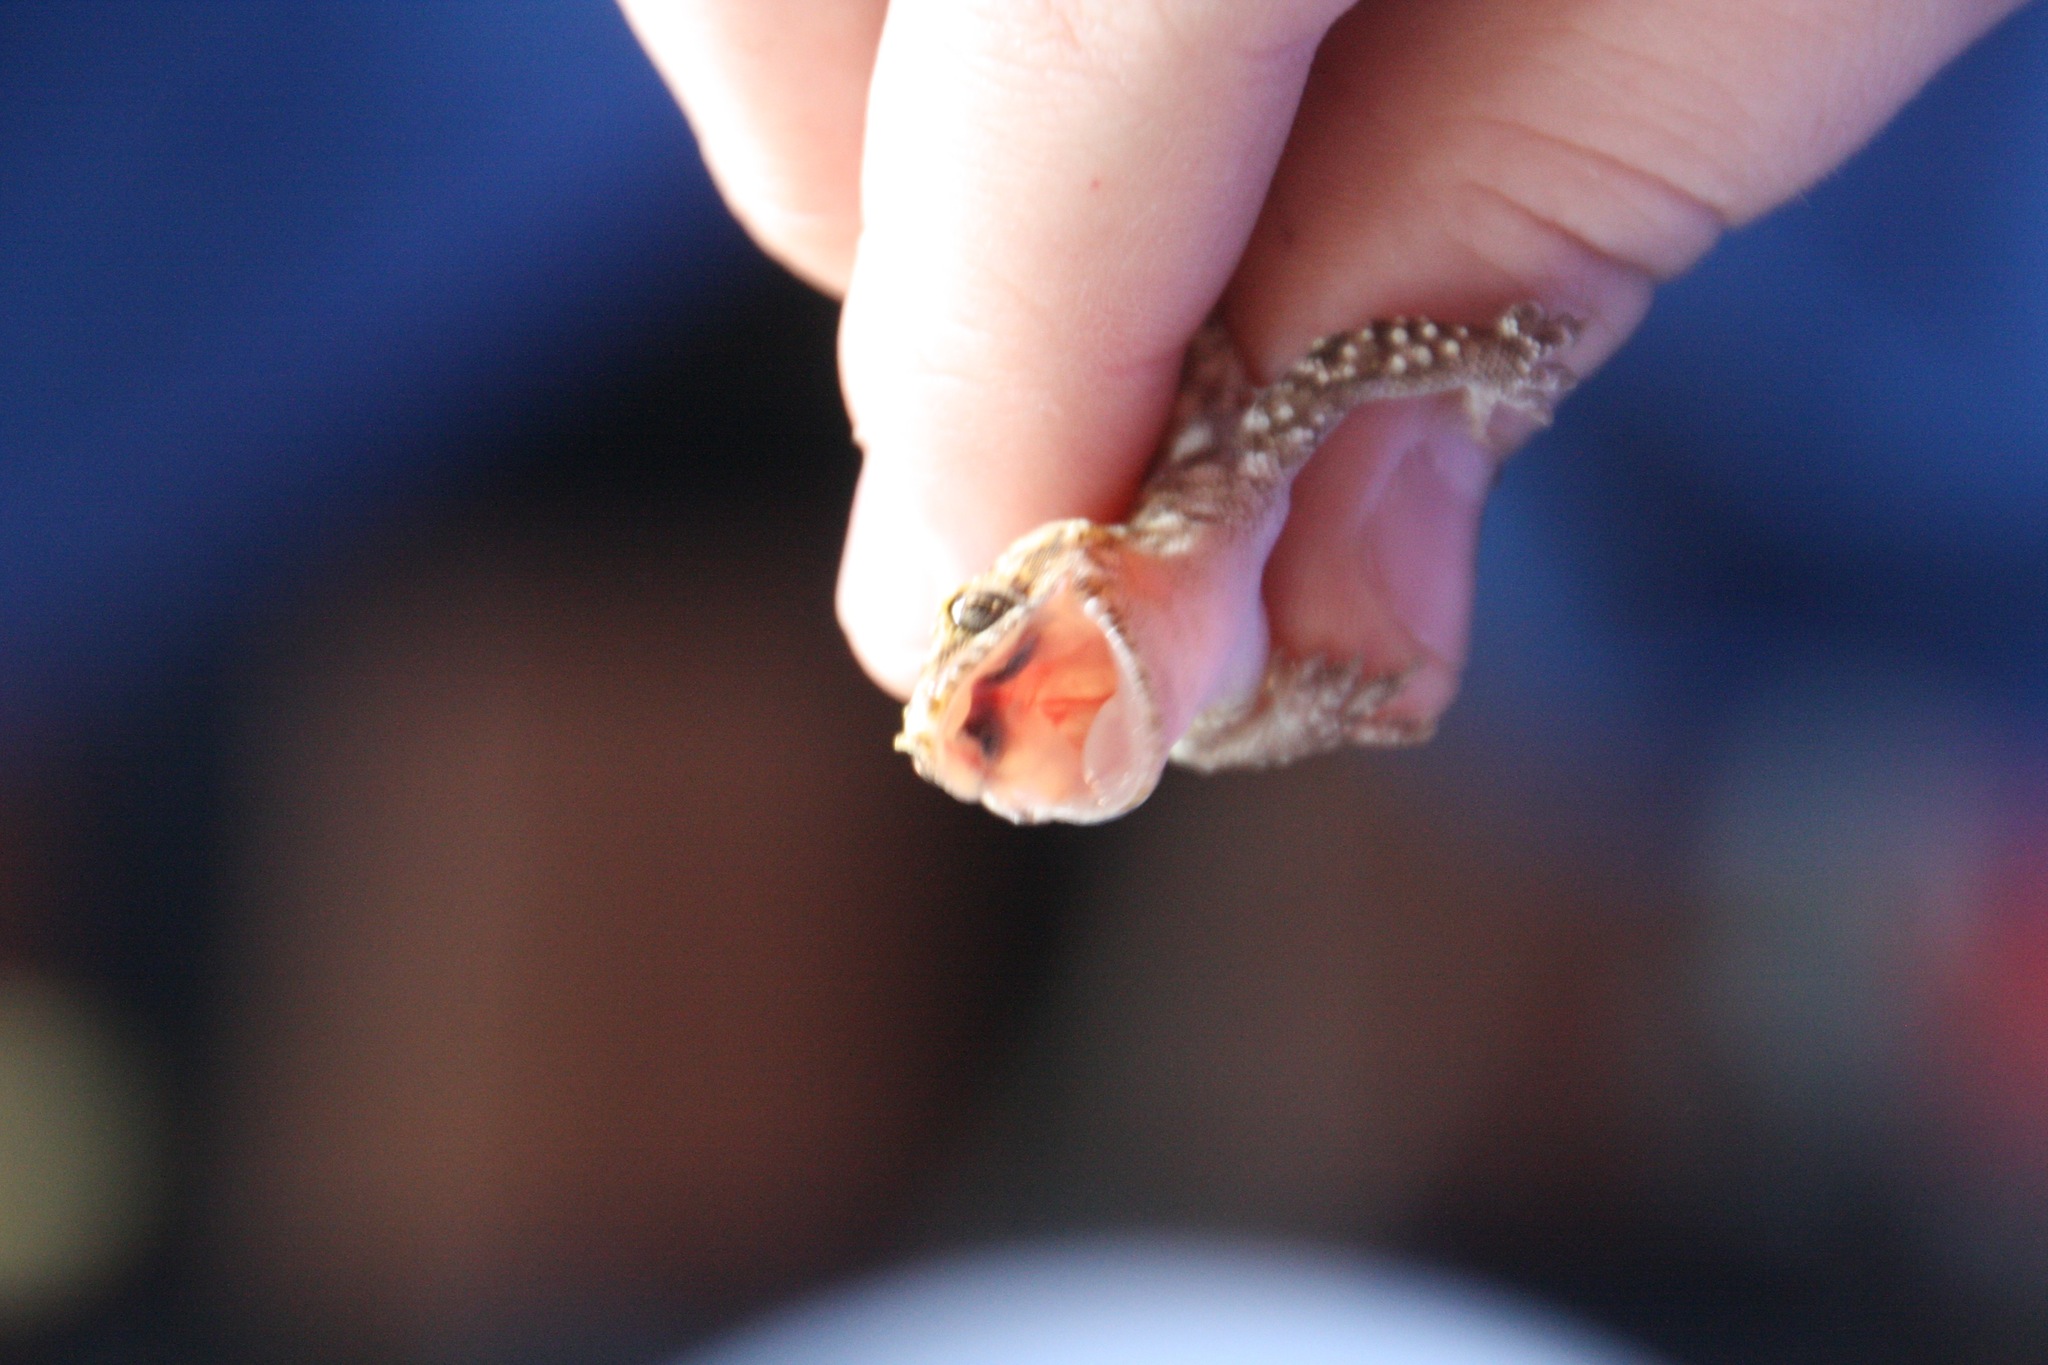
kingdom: Animalia
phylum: Chordata
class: Squamata
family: Gekkonidae
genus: Hemidactylus
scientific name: Hemidactylus turcicus
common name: Turkish gecko
